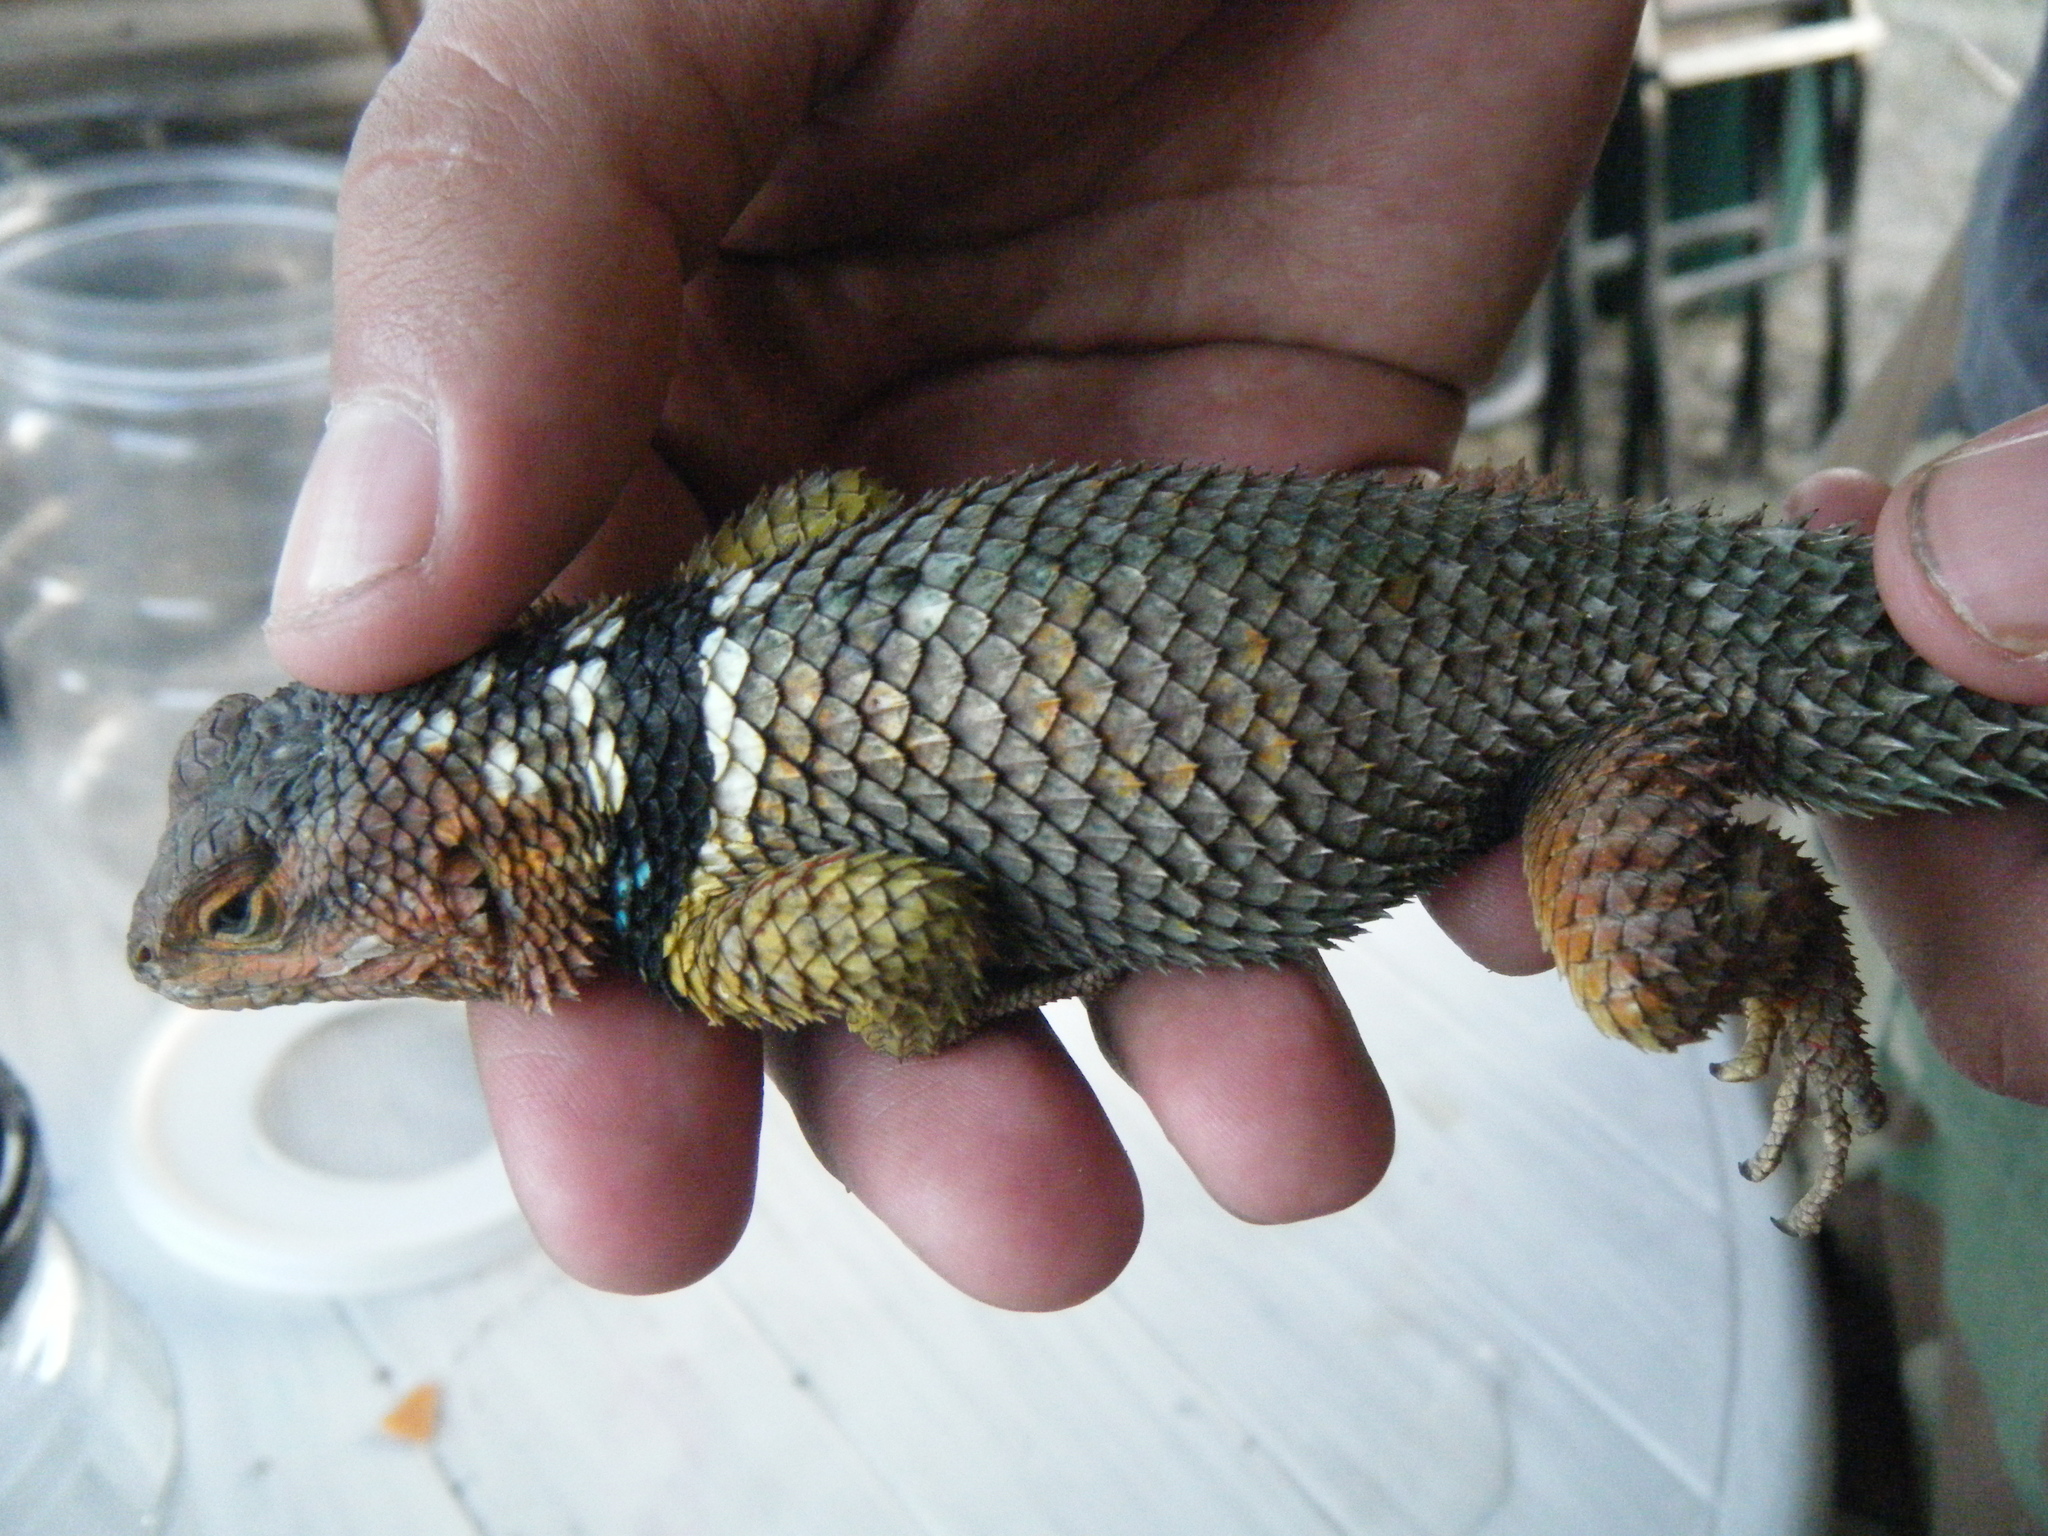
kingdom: Animalia
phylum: Chordata
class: Squamata
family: Phrynosomatidae
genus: Sceloporus
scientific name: Sceloporus cyanogenys
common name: Blue spiny lizard
